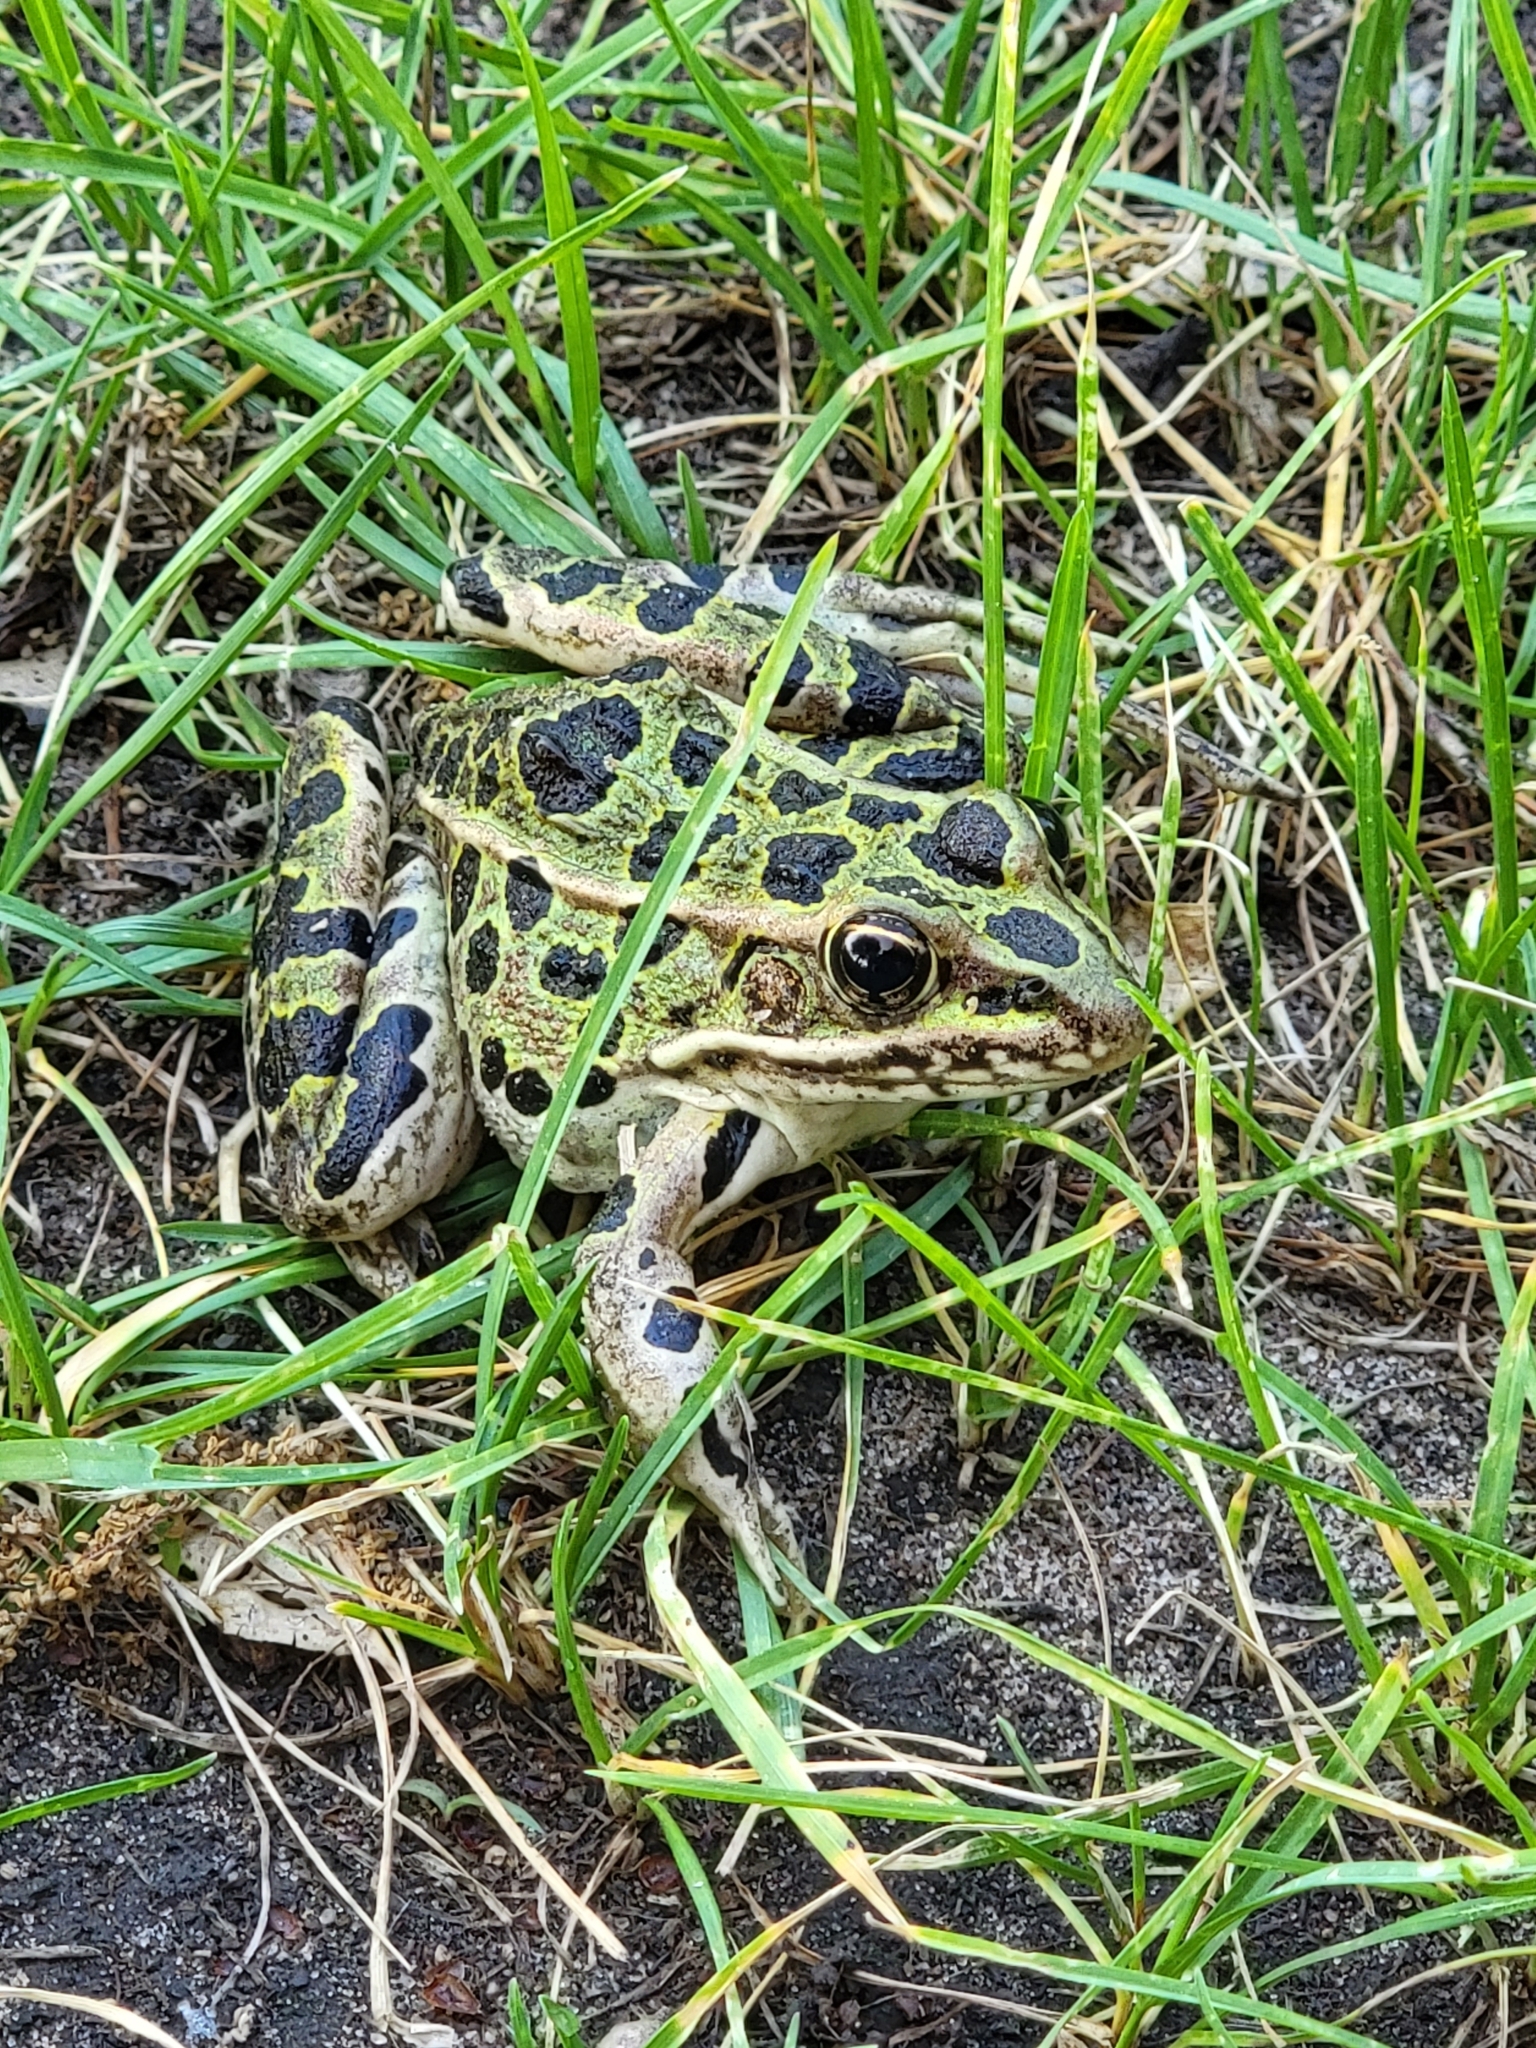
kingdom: Animalia
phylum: Chordata
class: Amphibia
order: Anura
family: Ranidae
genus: Lithobates
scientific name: Lithobates pipiens
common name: Northern leopard frog
